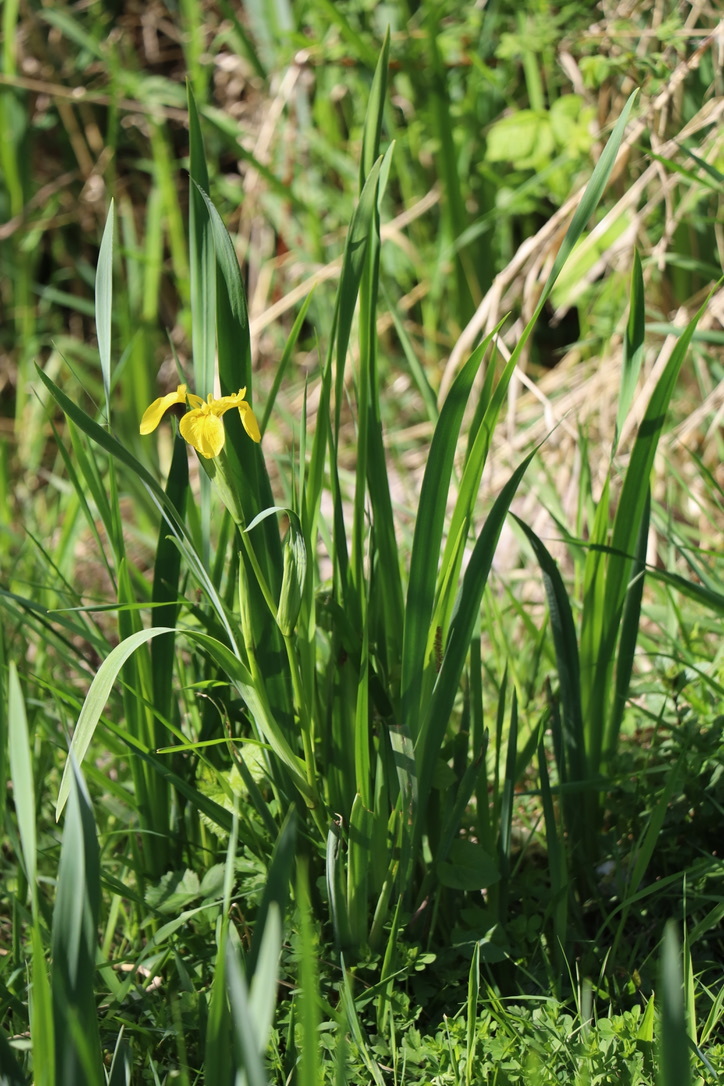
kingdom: Plantae
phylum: Tracheophyta
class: Liliopsida
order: Asparagales
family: Iridaceae
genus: Iris
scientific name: Iris pseudacorus
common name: Yellow flag
